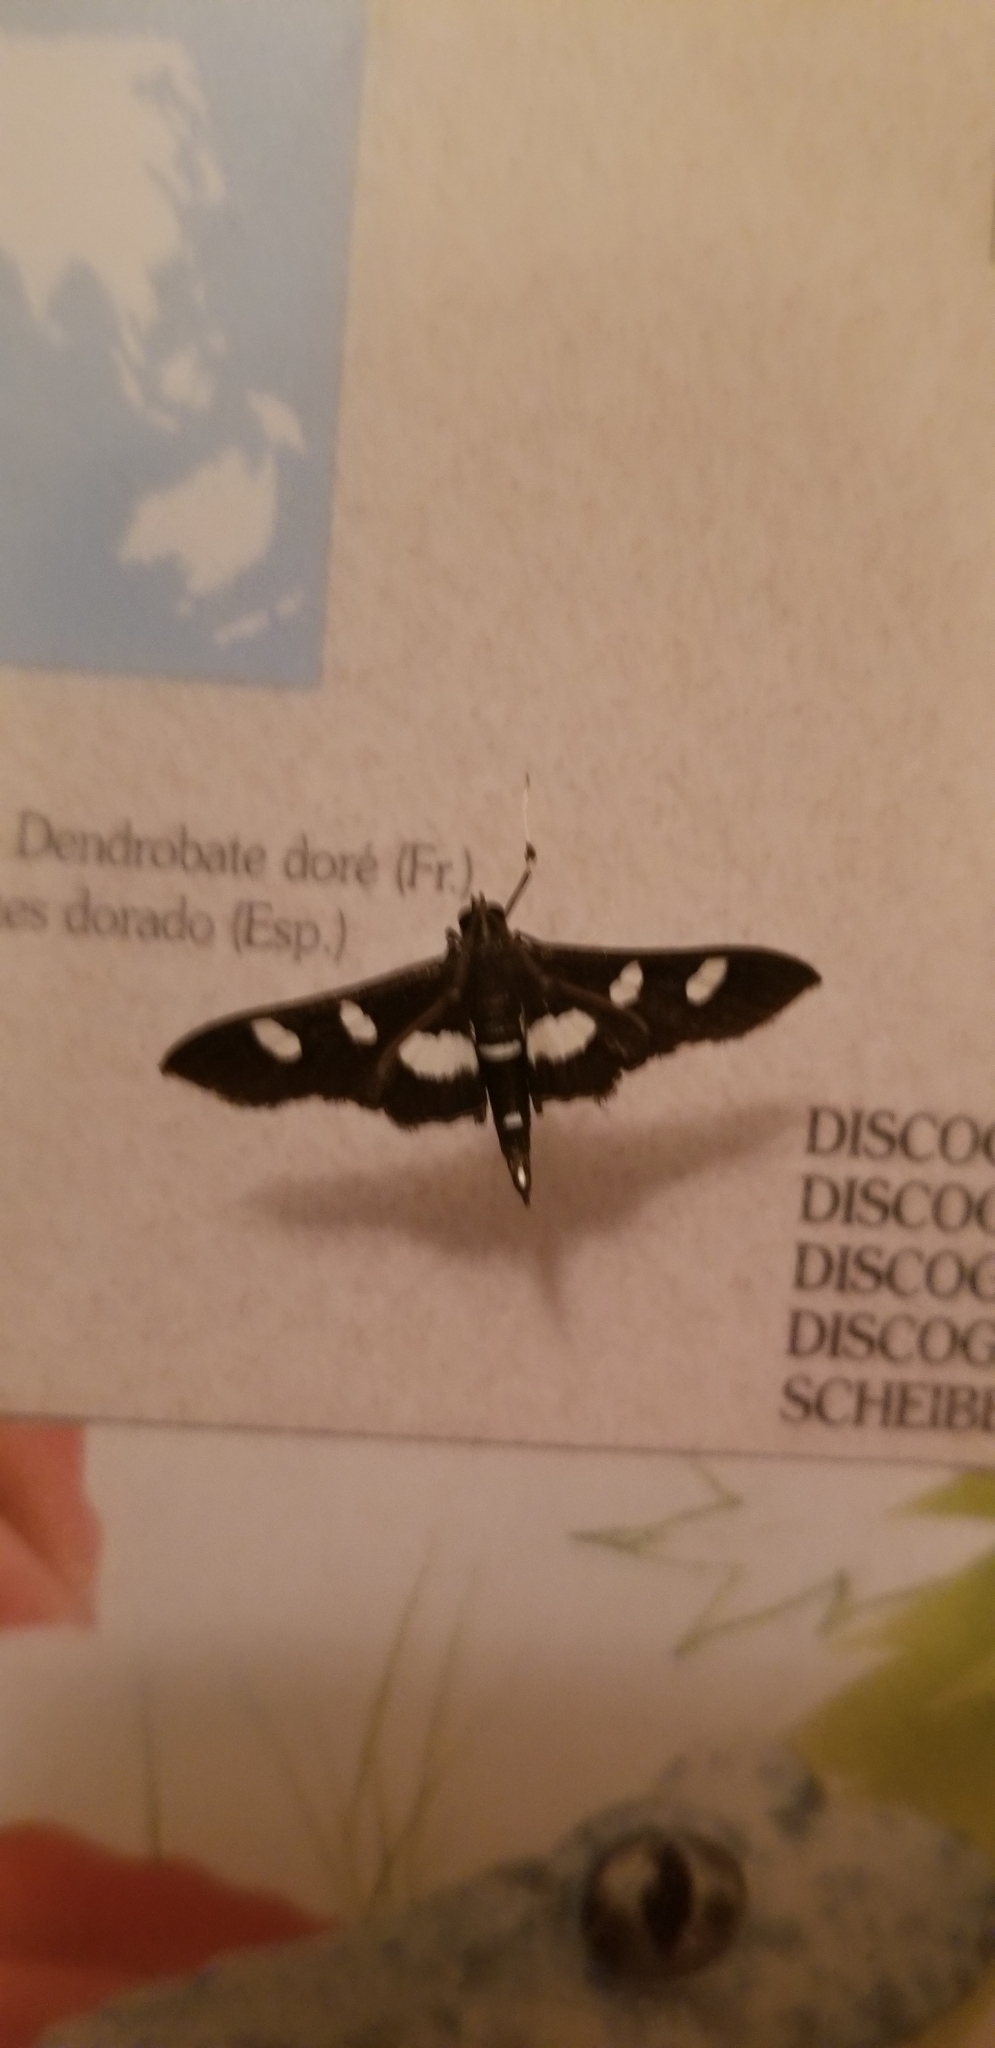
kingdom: Animalia
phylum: Arthropoda
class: Insecta
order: Lepidoptera
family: Crambidae
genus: Desmia
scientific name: Desmia
